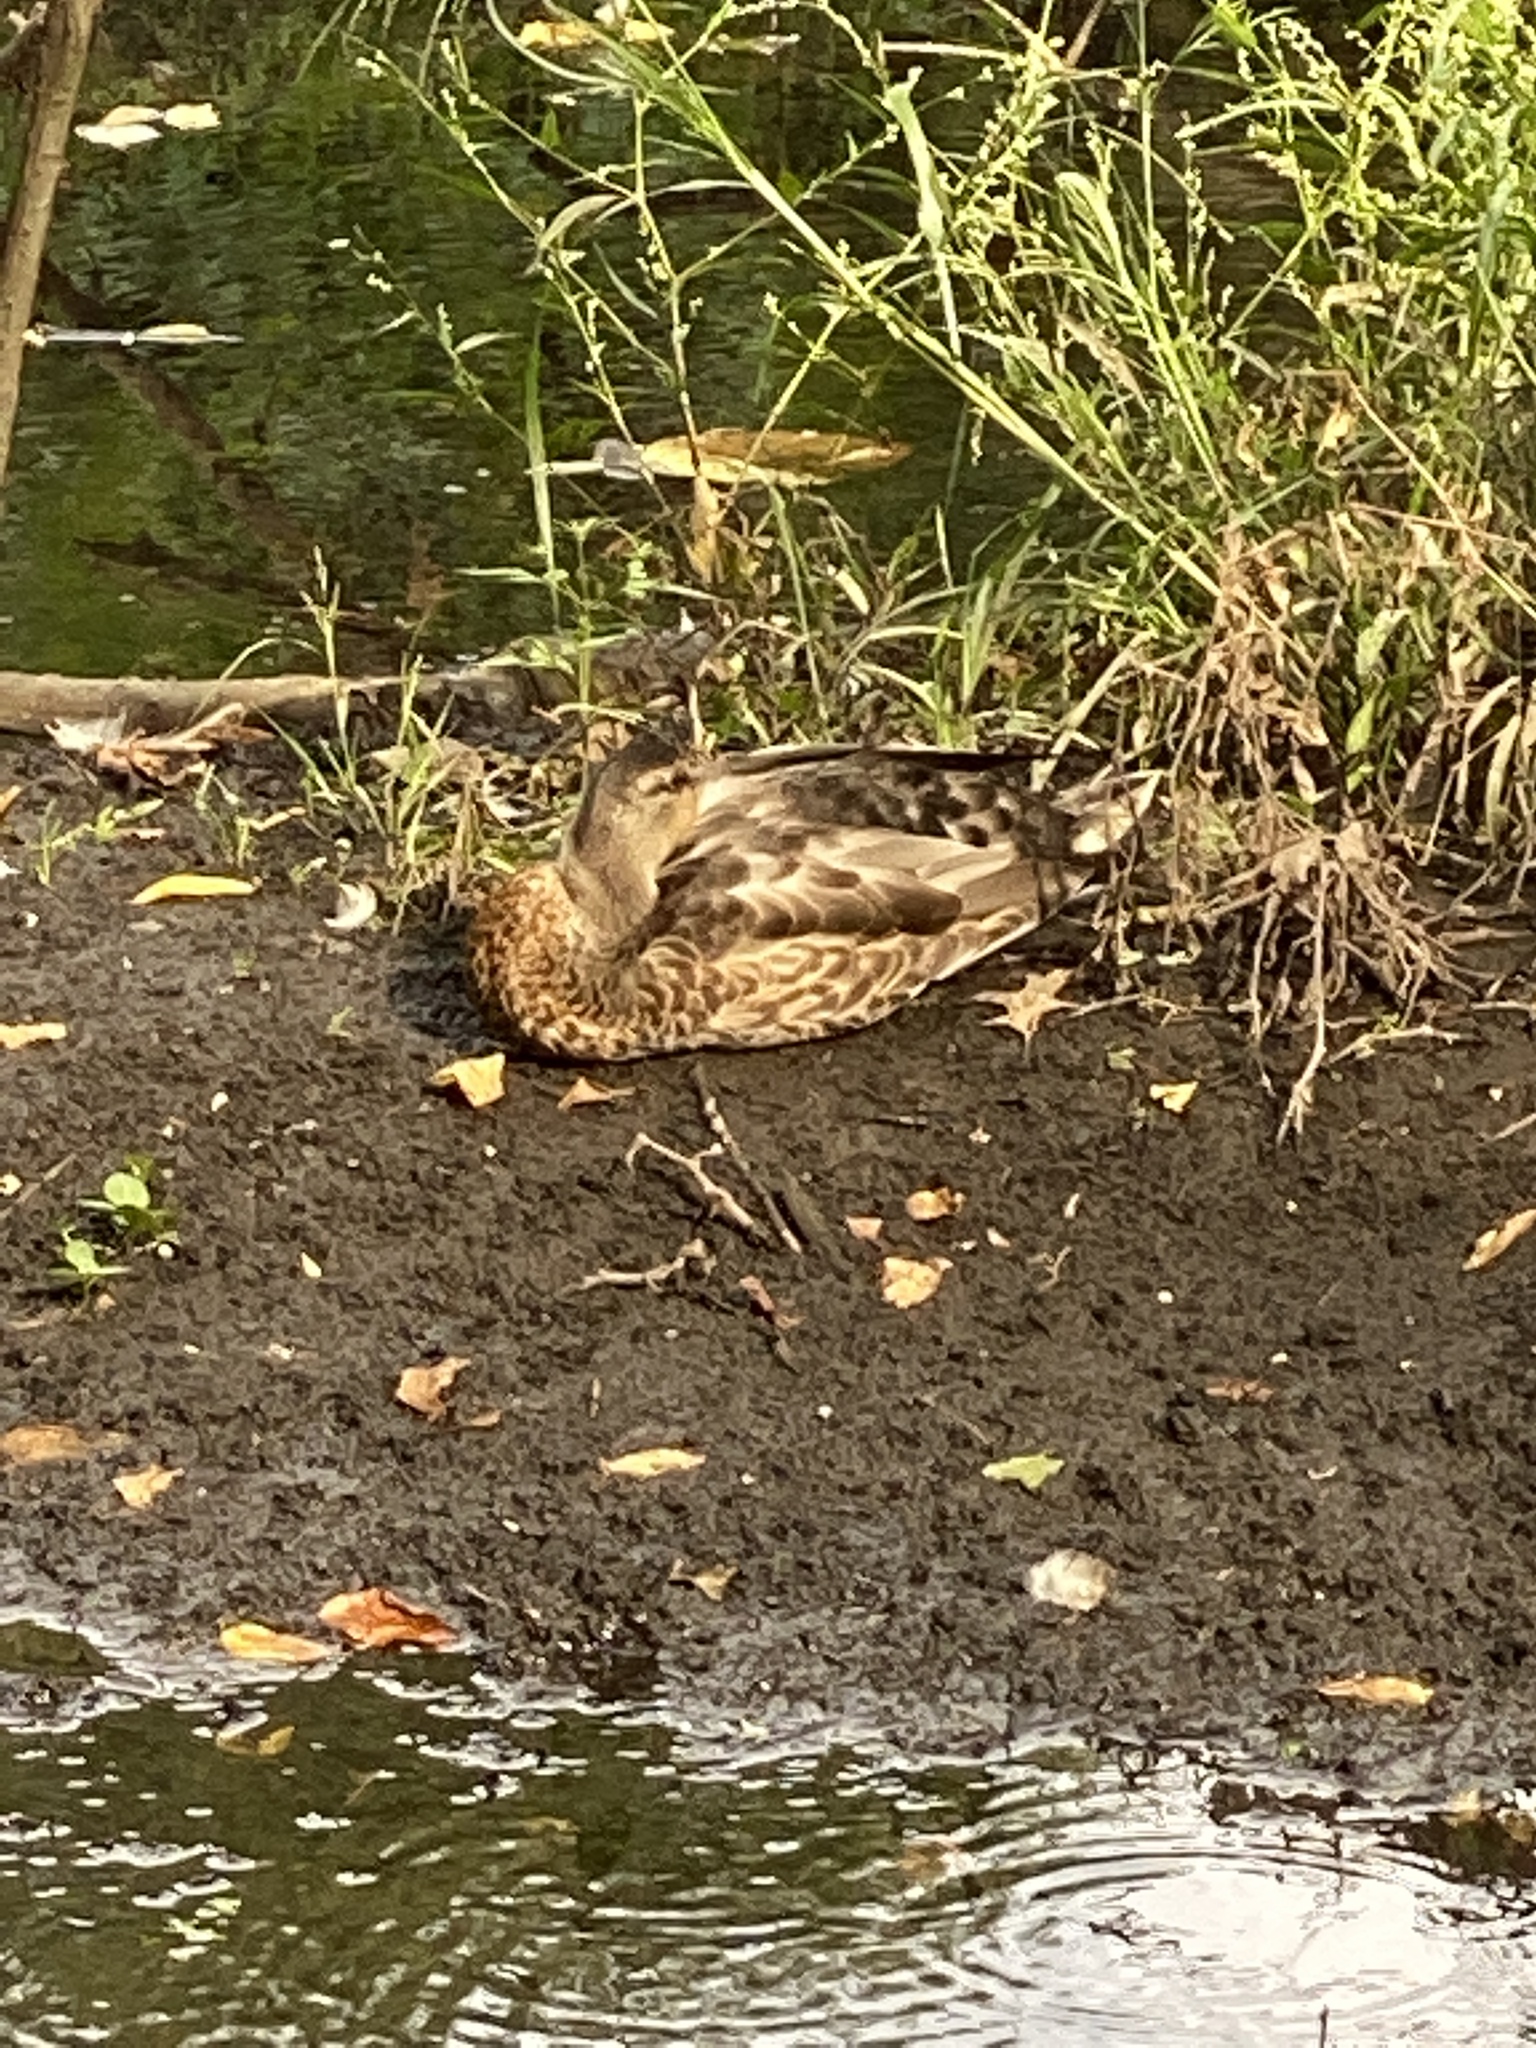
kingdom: Animalia
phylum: Chordata
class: Aves
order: Anseriformes
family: Anatidae
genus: Anas
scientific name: Anas platyrhynchos
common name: Mallard
